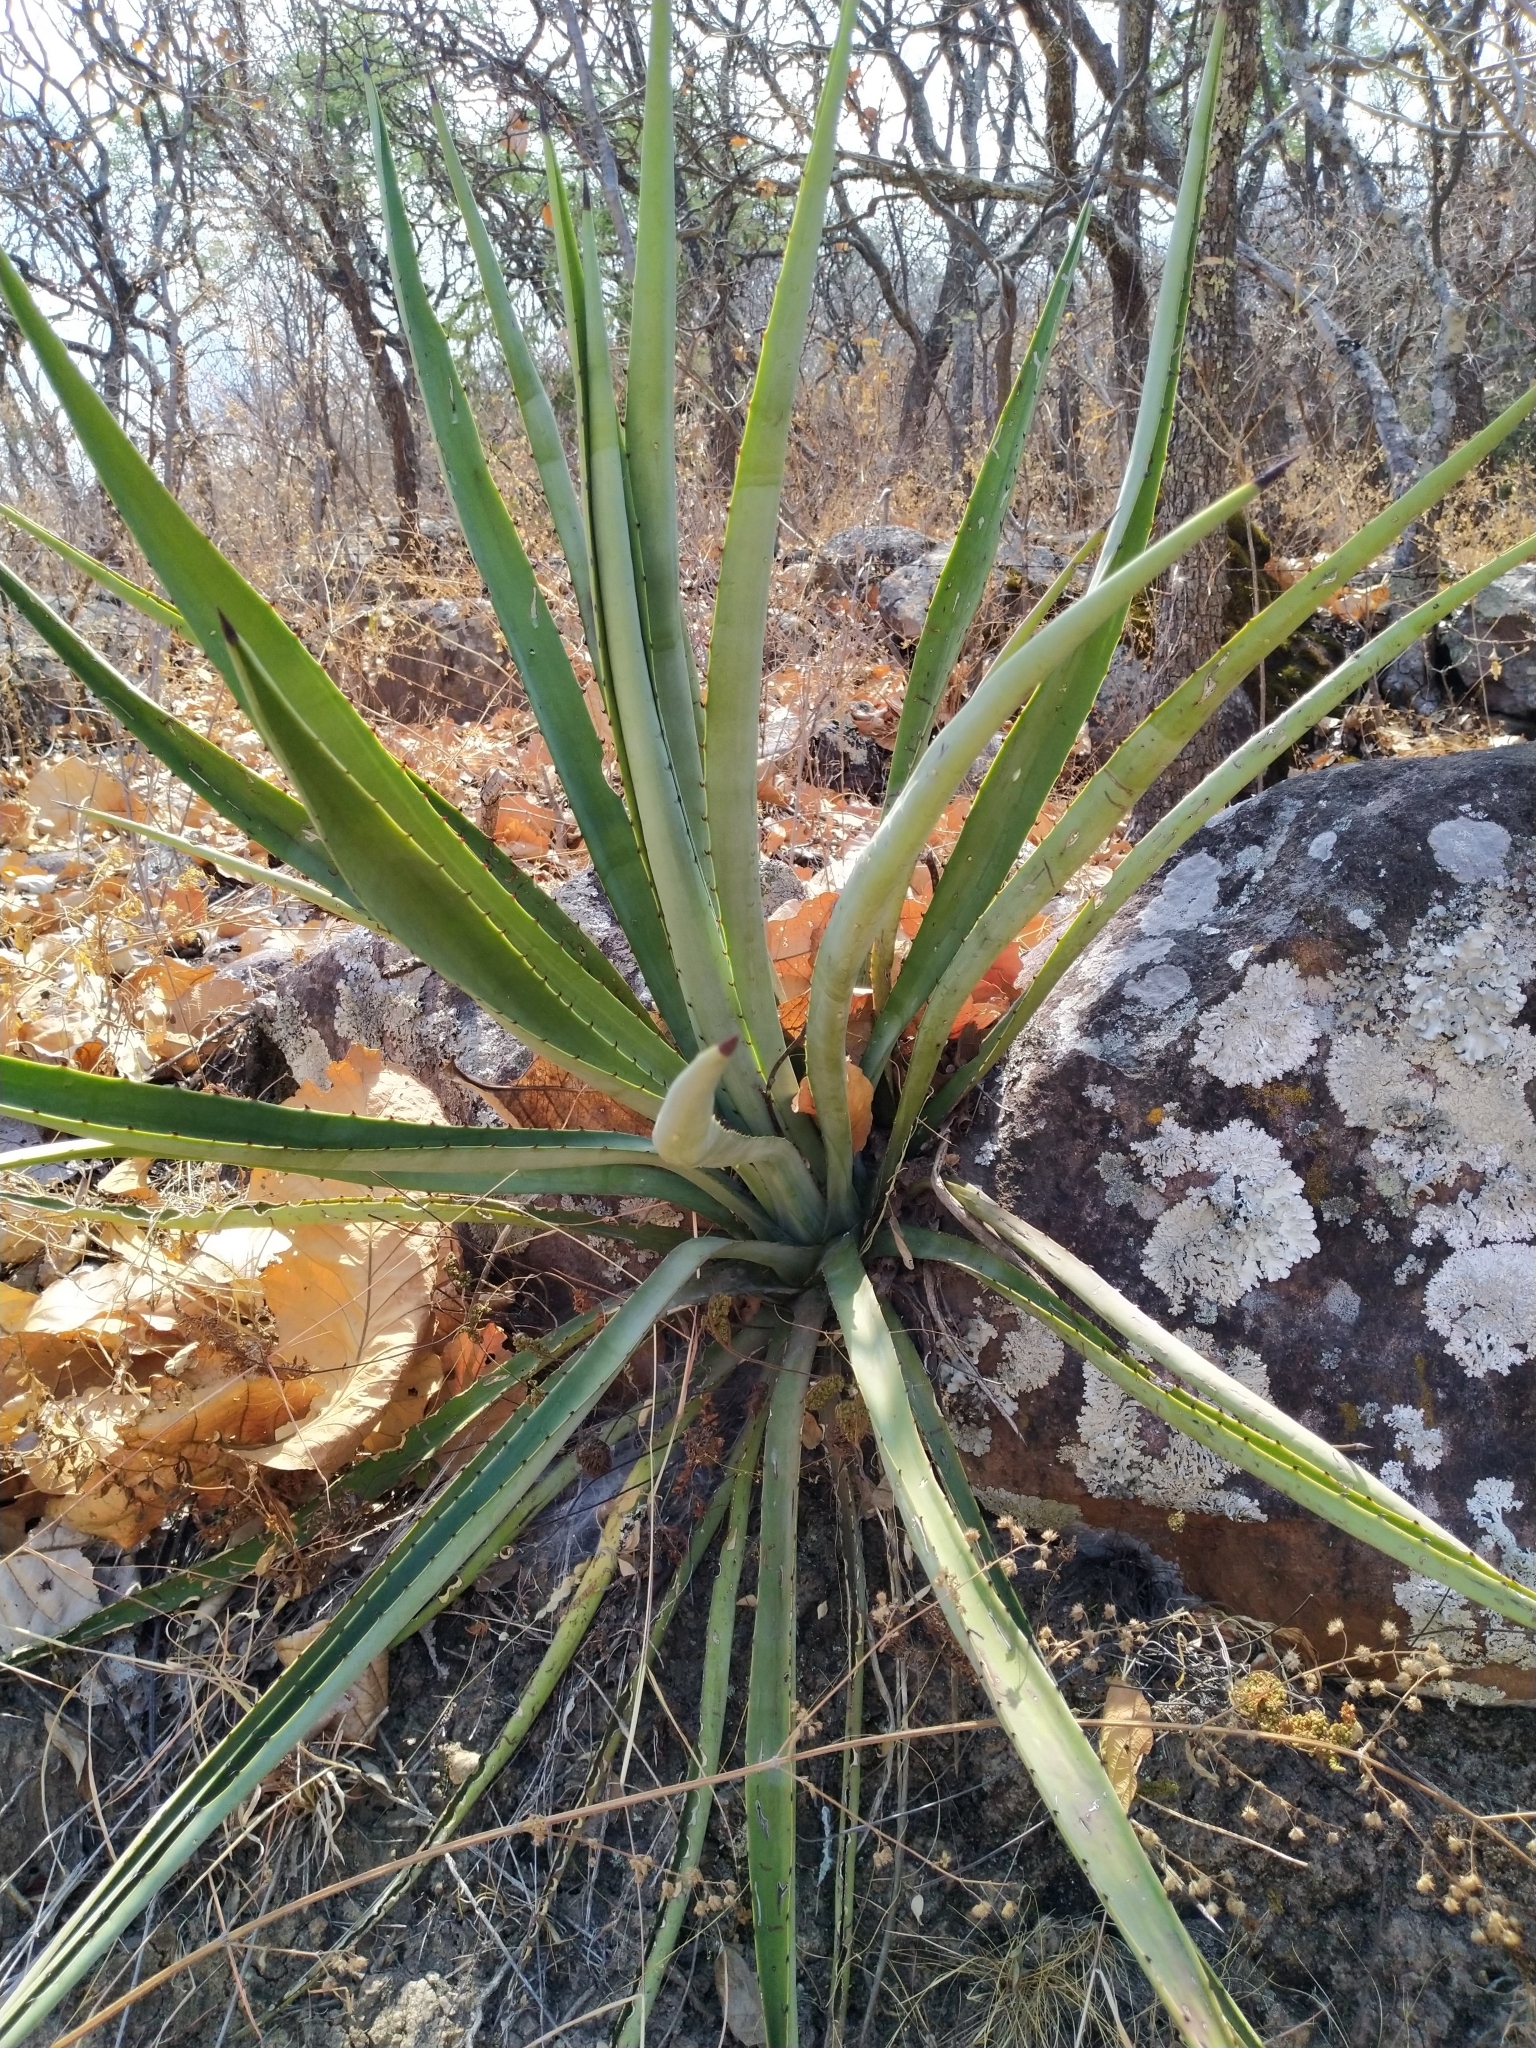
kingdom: Plantae
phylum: Tracheophyta
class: Liliopsida
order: Asparagales
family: Asparagaceae
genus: Agave
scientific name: Agave angustifolia
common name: Mescal agave
